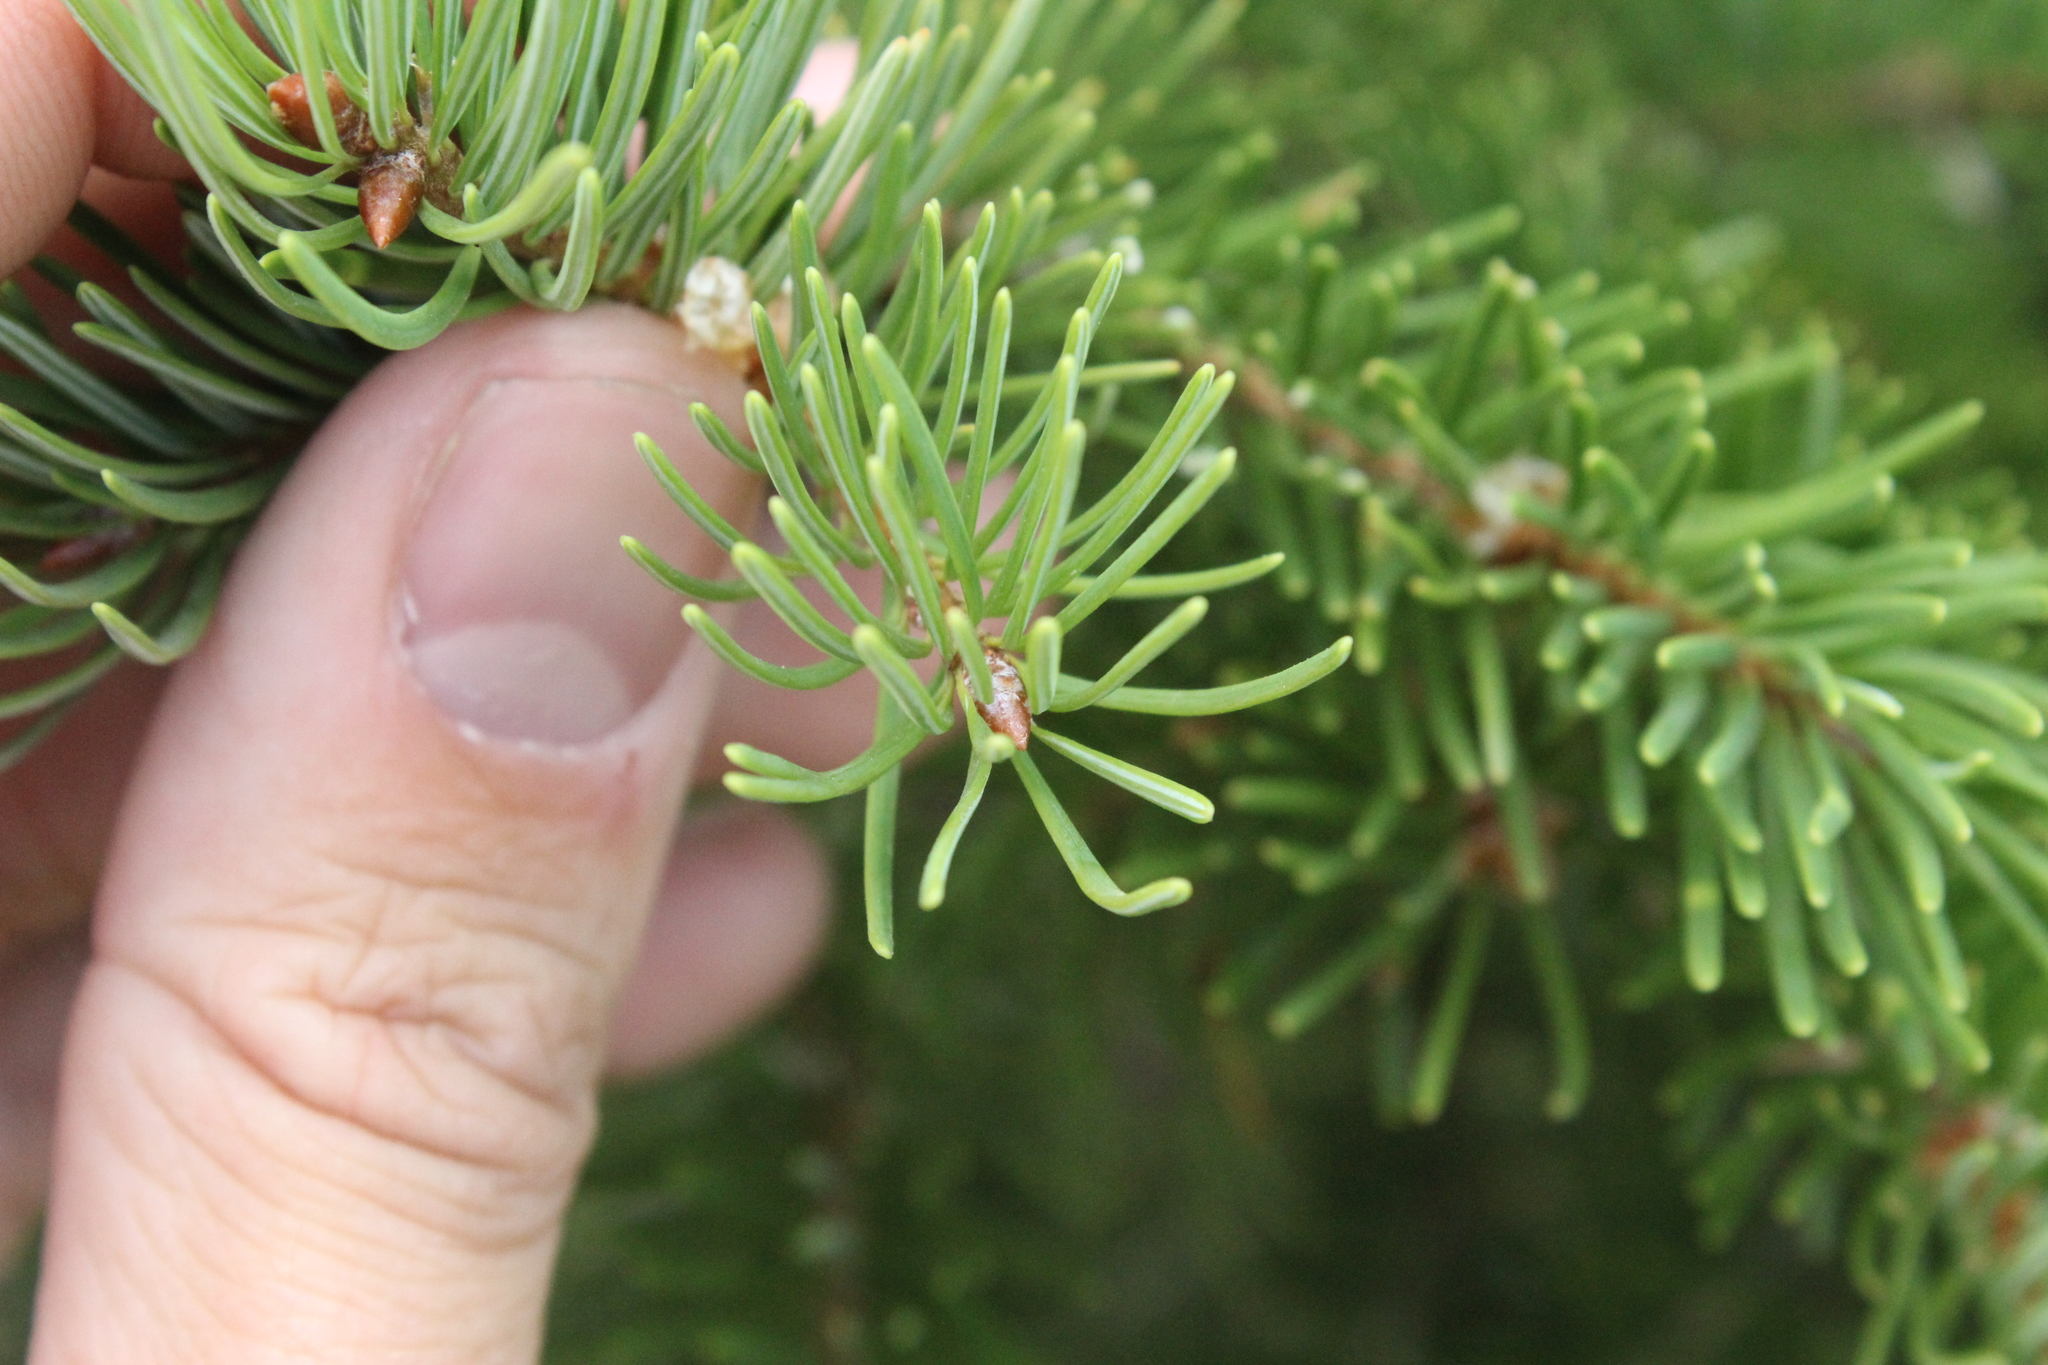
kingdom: Plantae
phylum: Tracheophyta
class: Pinopsida
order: Pinales
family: Pinaceae
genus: Pseudotsuga
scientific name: Pseudotsuga menziesii
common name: Douglas fir
